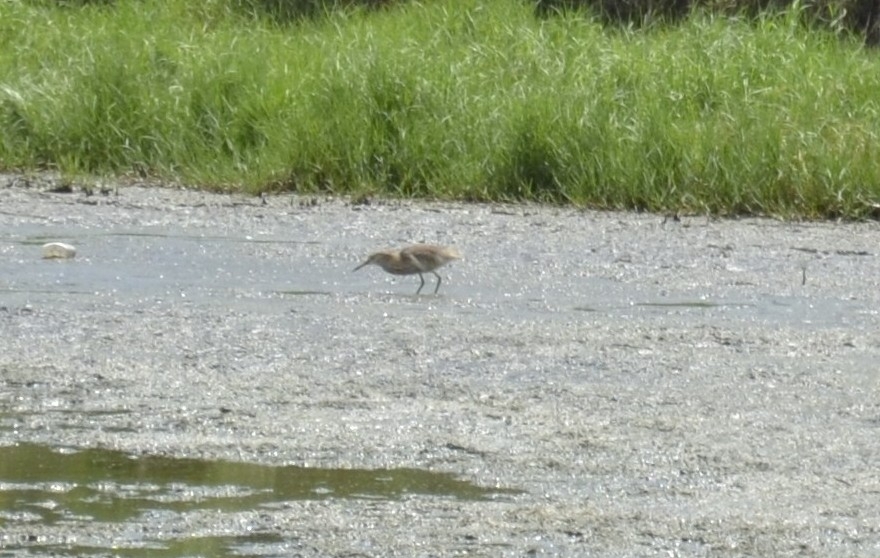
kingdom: Animalia
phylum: Chordata
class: Aves
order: Pelecaniformes
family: Ardeidae
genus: Ardeola
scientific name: Ardeola grayii
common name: Indian pond heron
